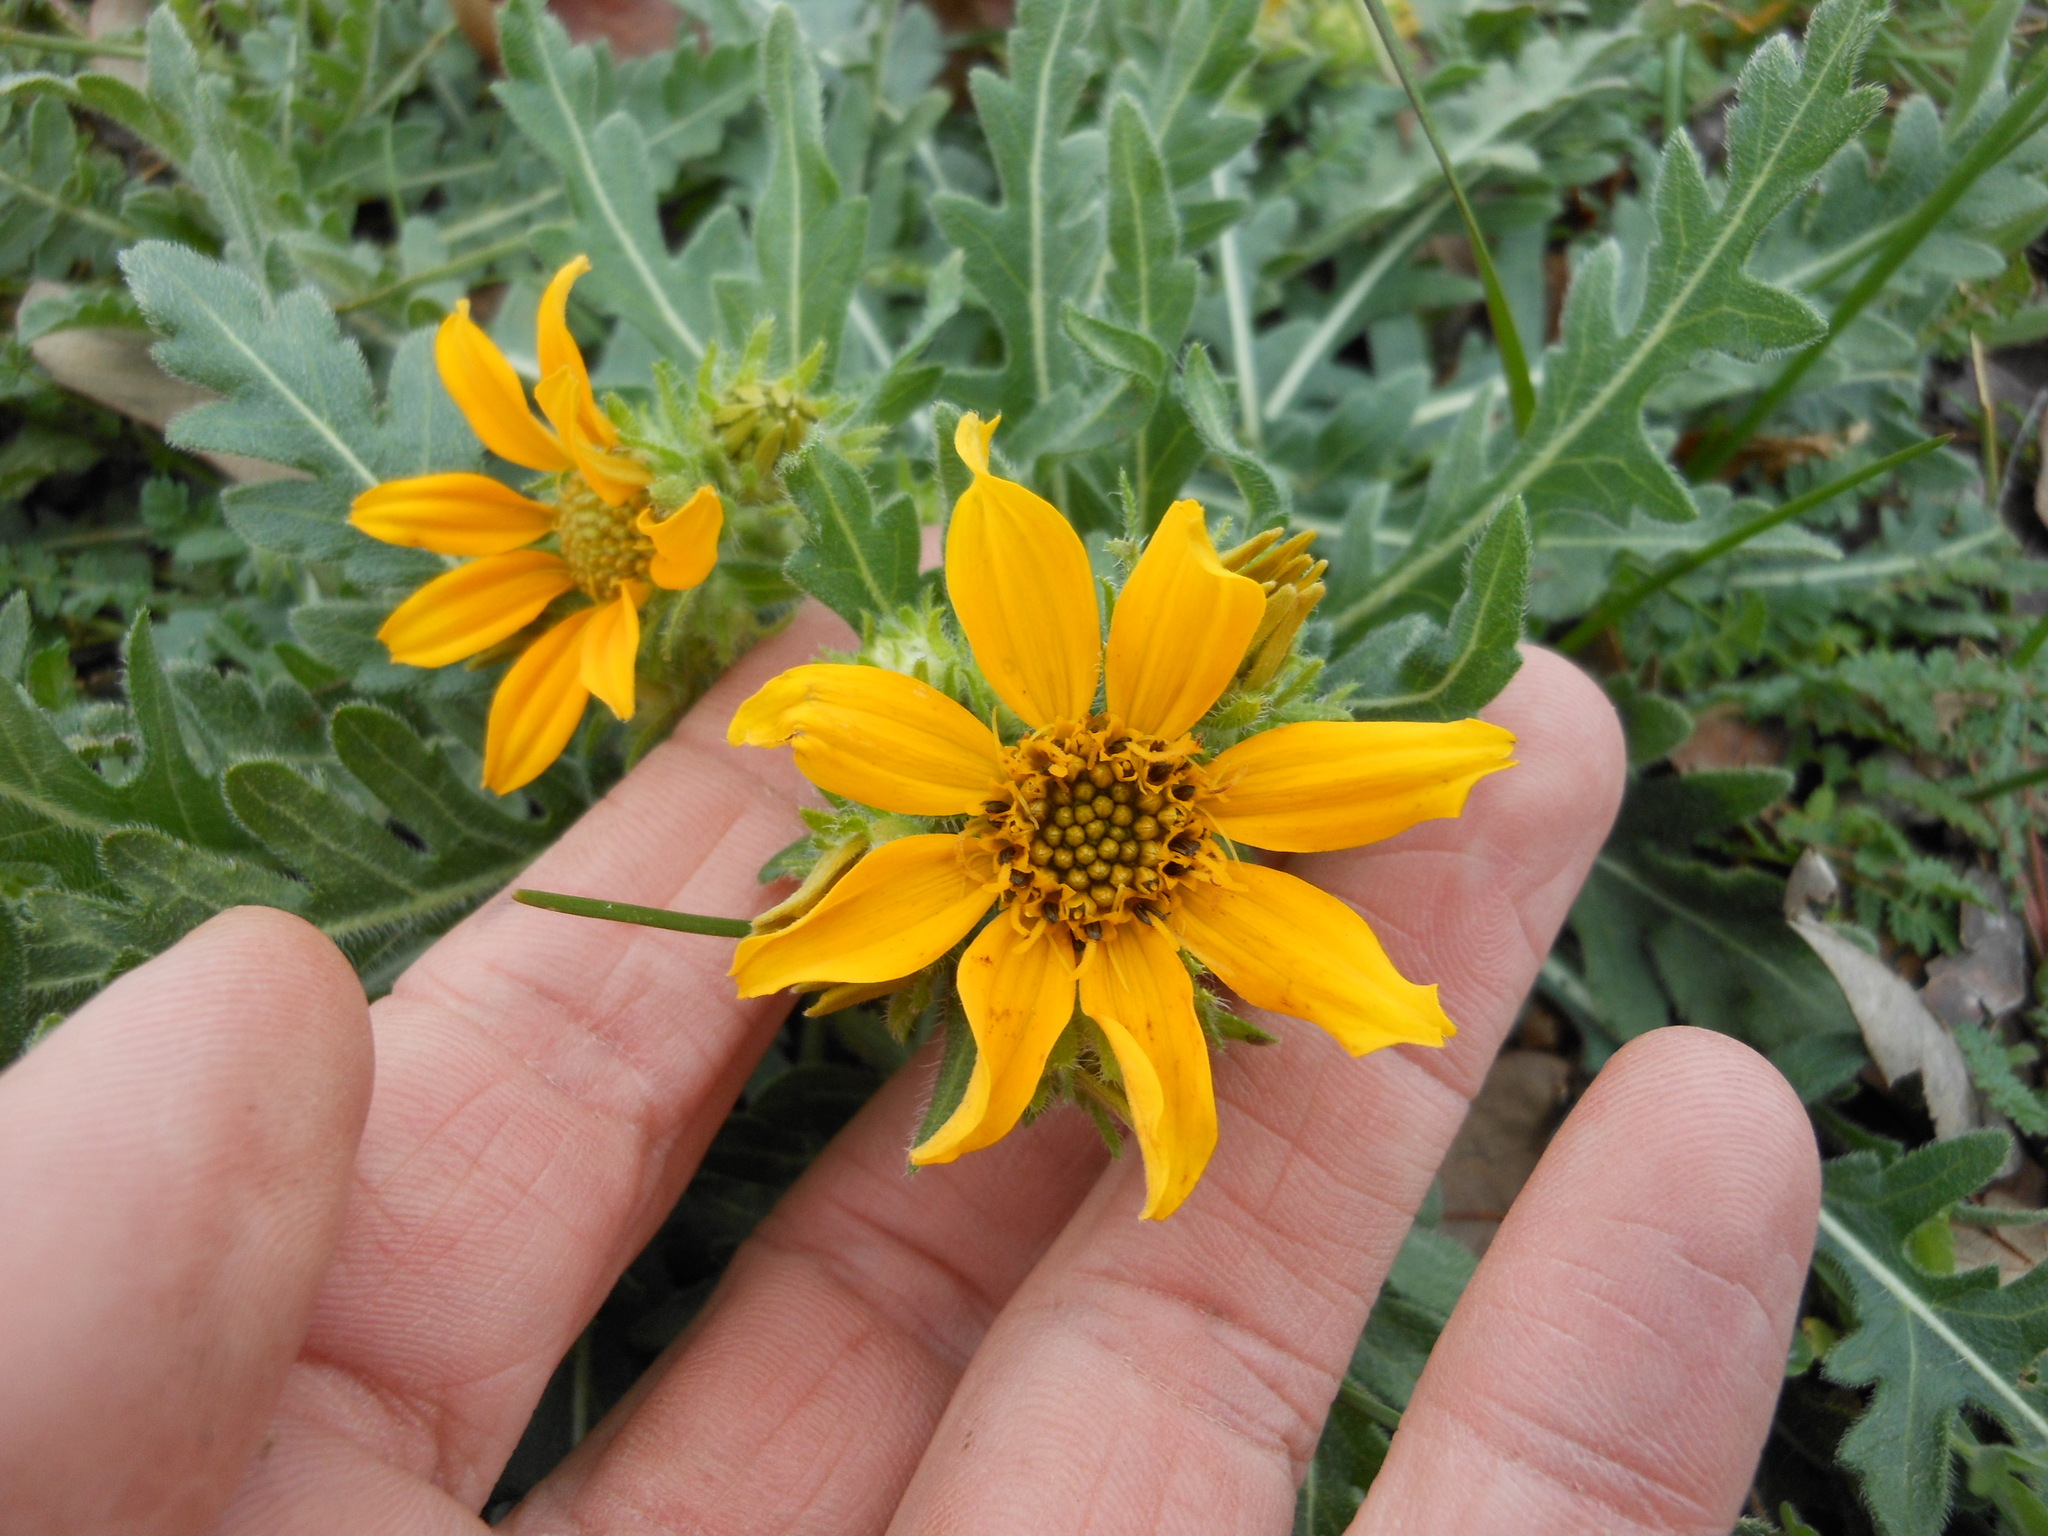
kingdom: Plantae
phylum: Tracheophyta
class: Magnoliopsida
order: Asterales
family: Asteraceae
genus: Engelmannia
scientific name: Engelmannia peristenia
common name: Engelmann's daisy
